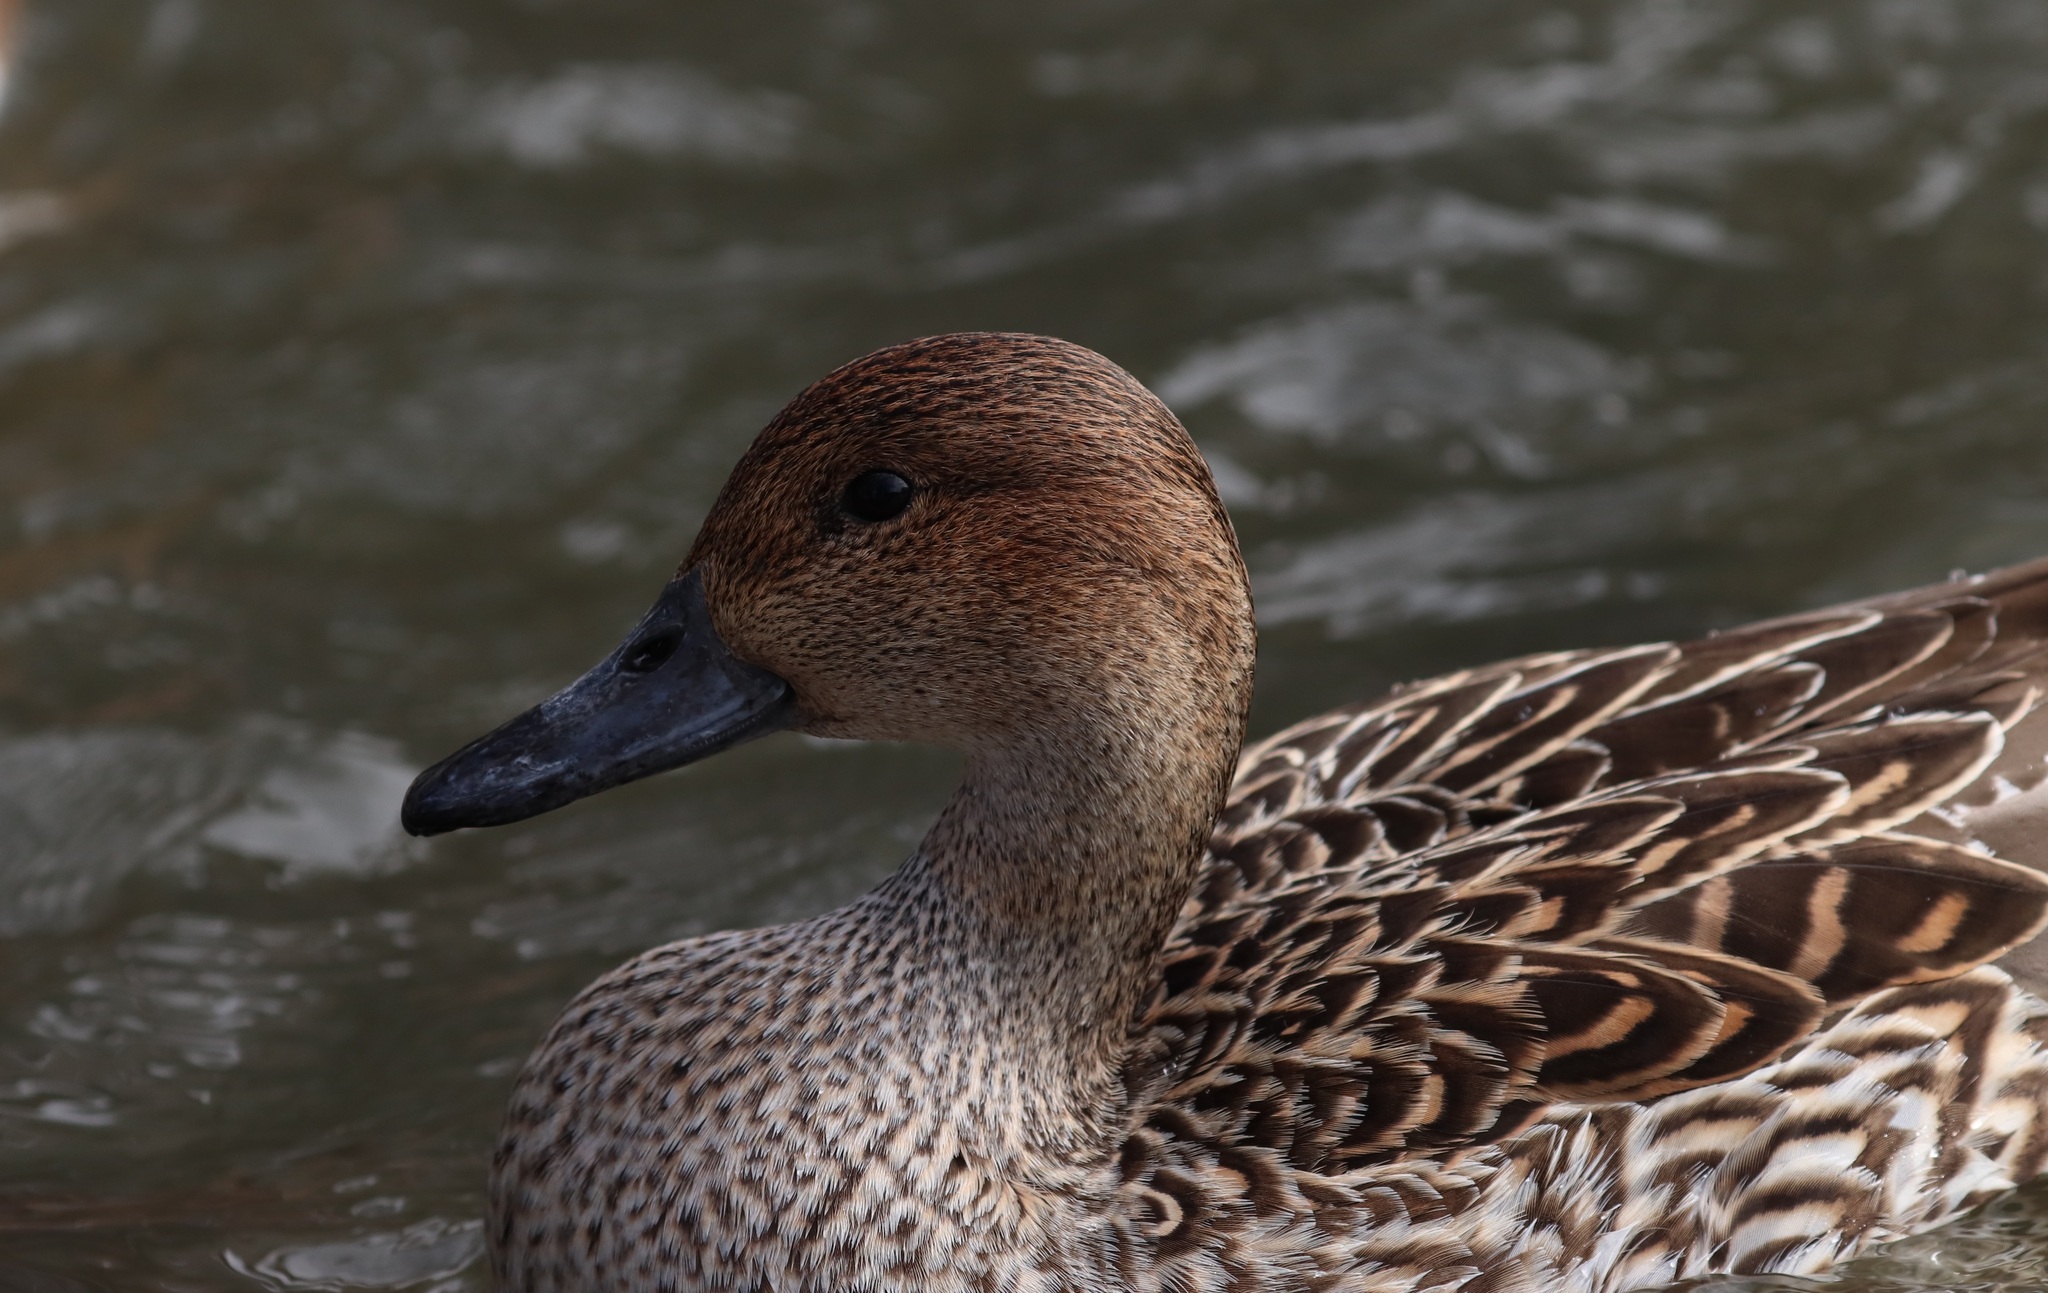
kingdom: Animalia
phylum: Chordata
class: Aves
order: Anseriformes
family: Anatidae
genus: Anas
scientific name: Anas acuta
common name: Northern pintail
